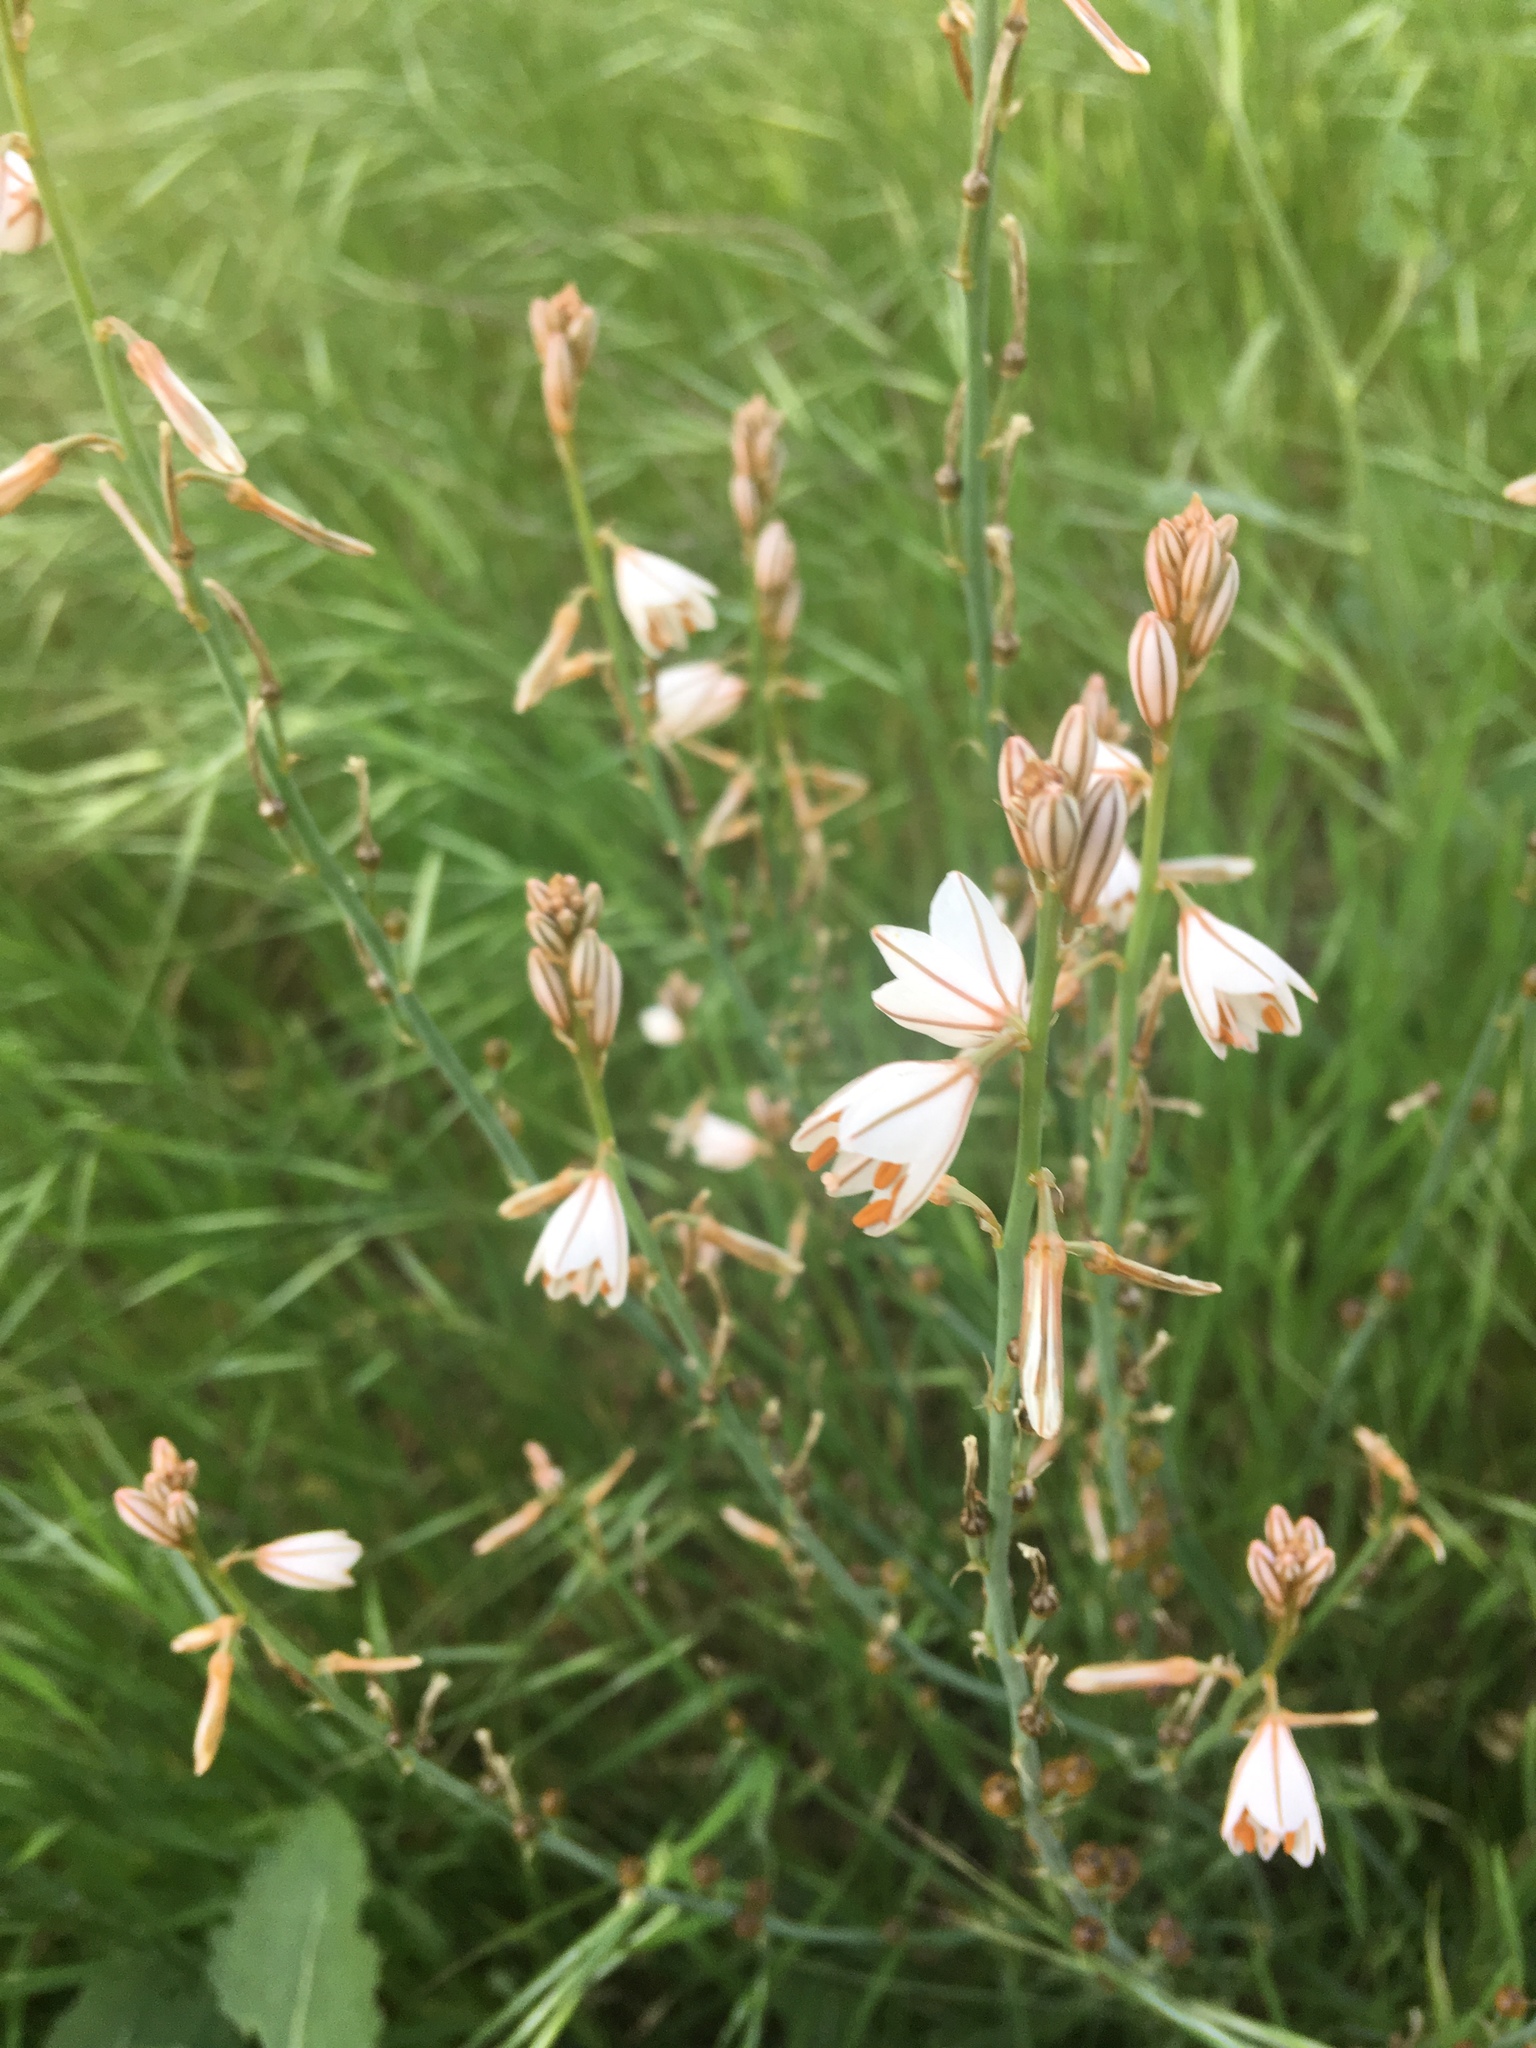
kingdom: Plantae
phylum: Tracheophyta
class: Liliopsida
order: Asparagales
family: Asphodelaceae
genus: Asphodelus
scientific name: Asphodelus fistulosus
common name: Onionweed
